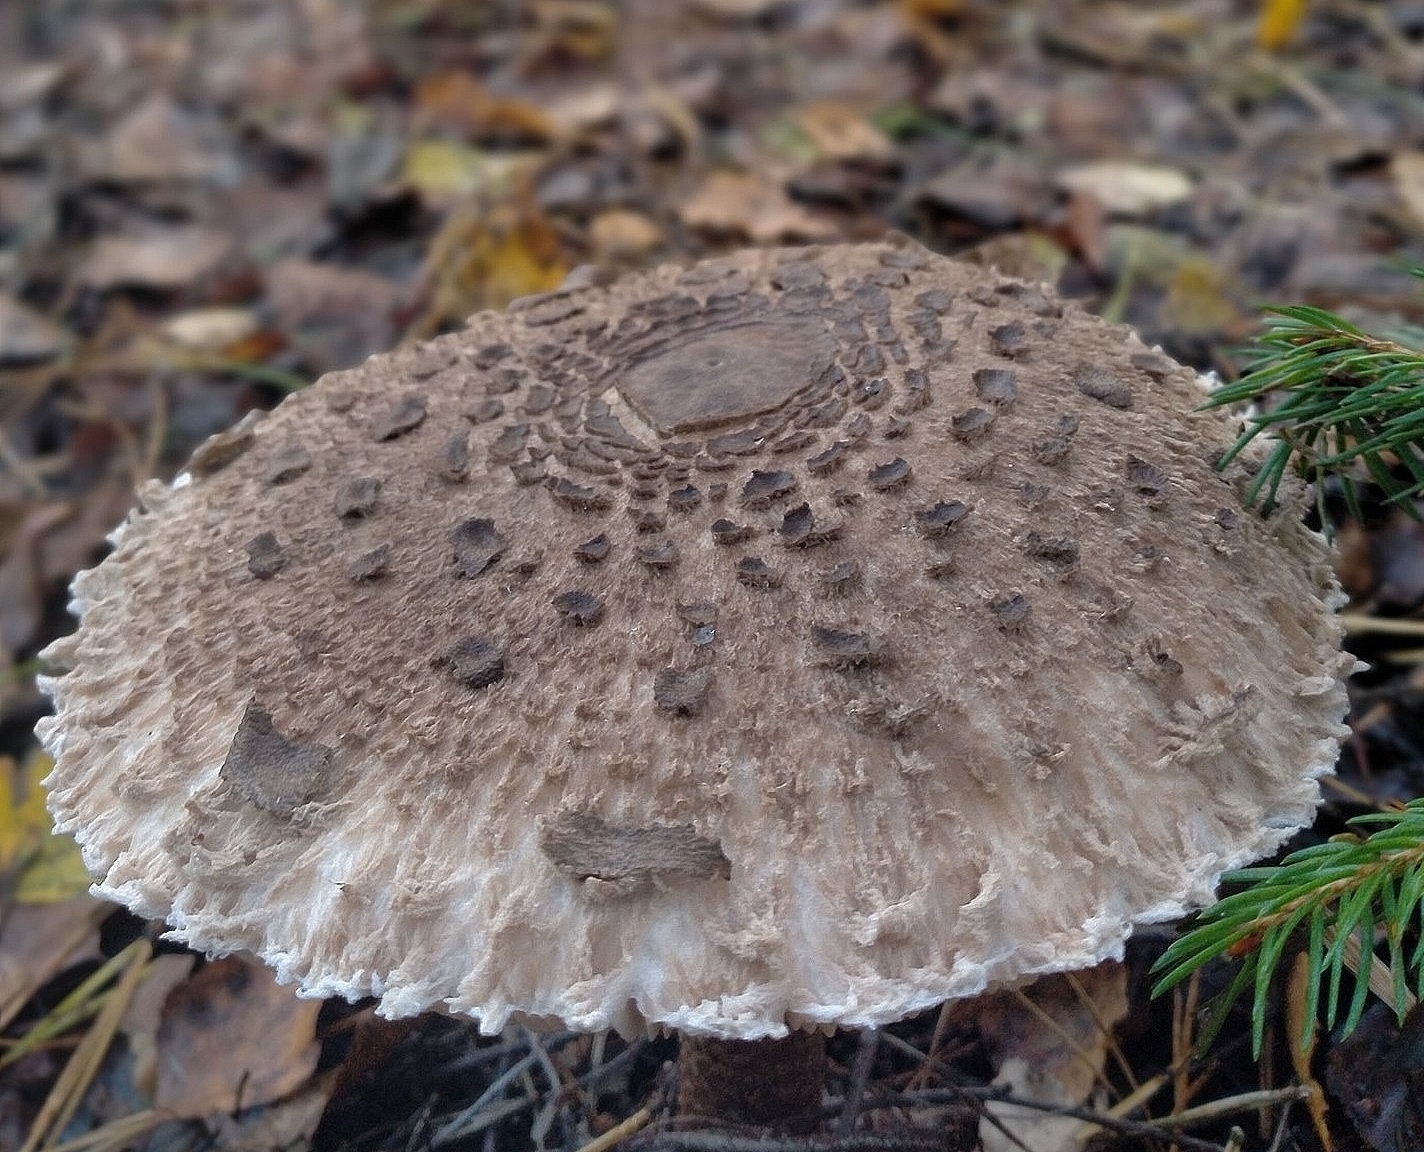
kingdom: Fungi
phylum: Basidiomycota
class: Agaricomycetes
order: Agaricales
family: Agaricaceae
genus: Macrolepiota
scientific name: Macrolepiota procera
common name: Parasol
